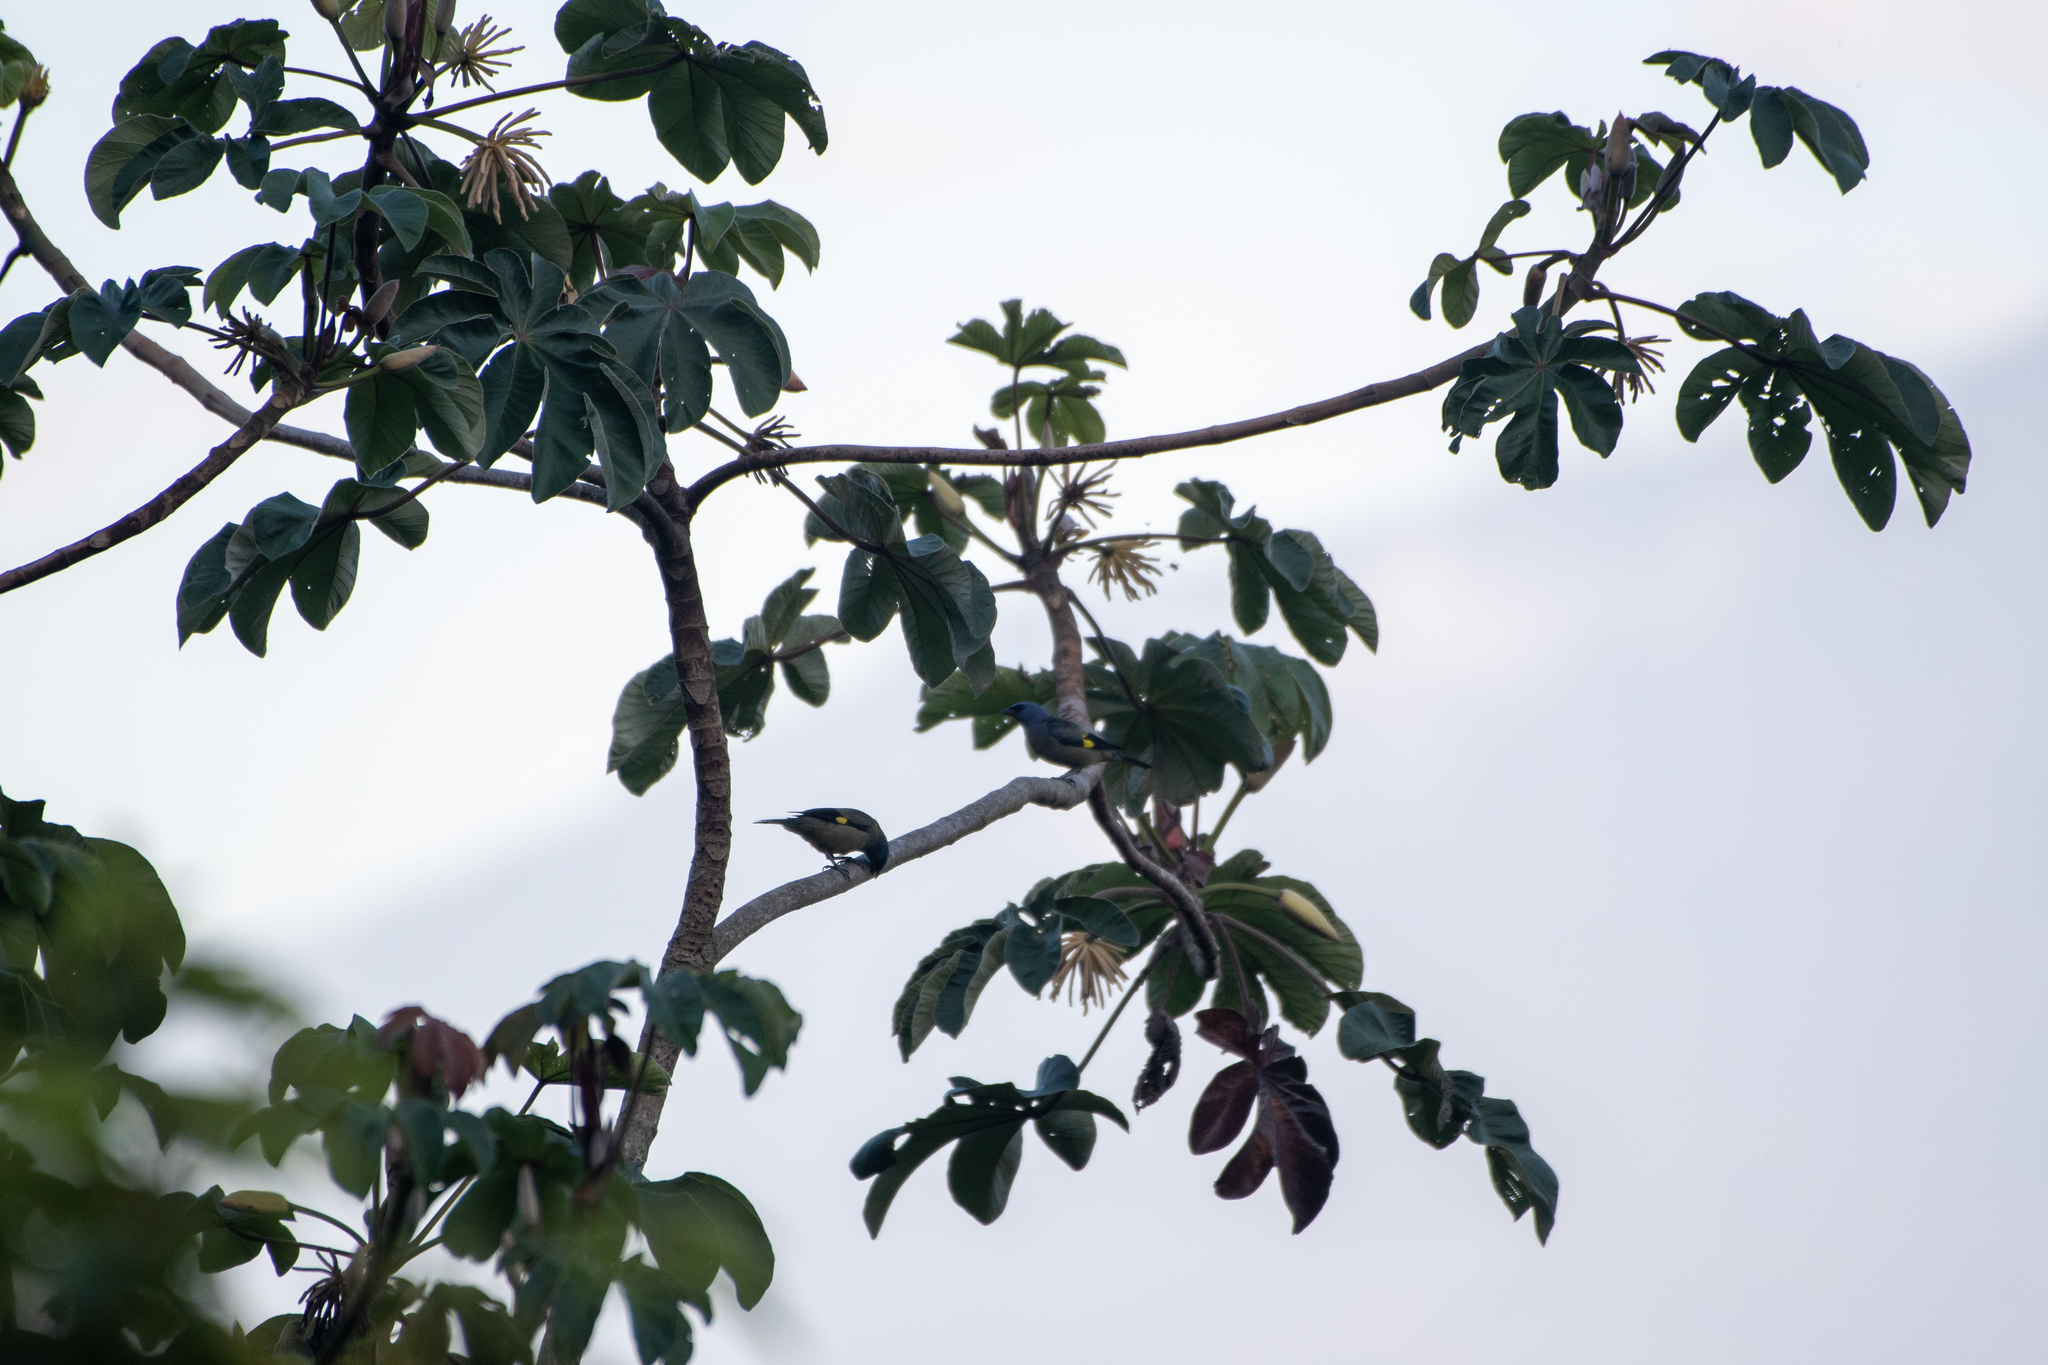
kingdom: Animalia
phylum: Chordata
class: Aves
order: Passeriformes
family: Thraupidae
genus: Thraupis
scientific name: Thraupis abbas
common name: Yellow-winged tanager
